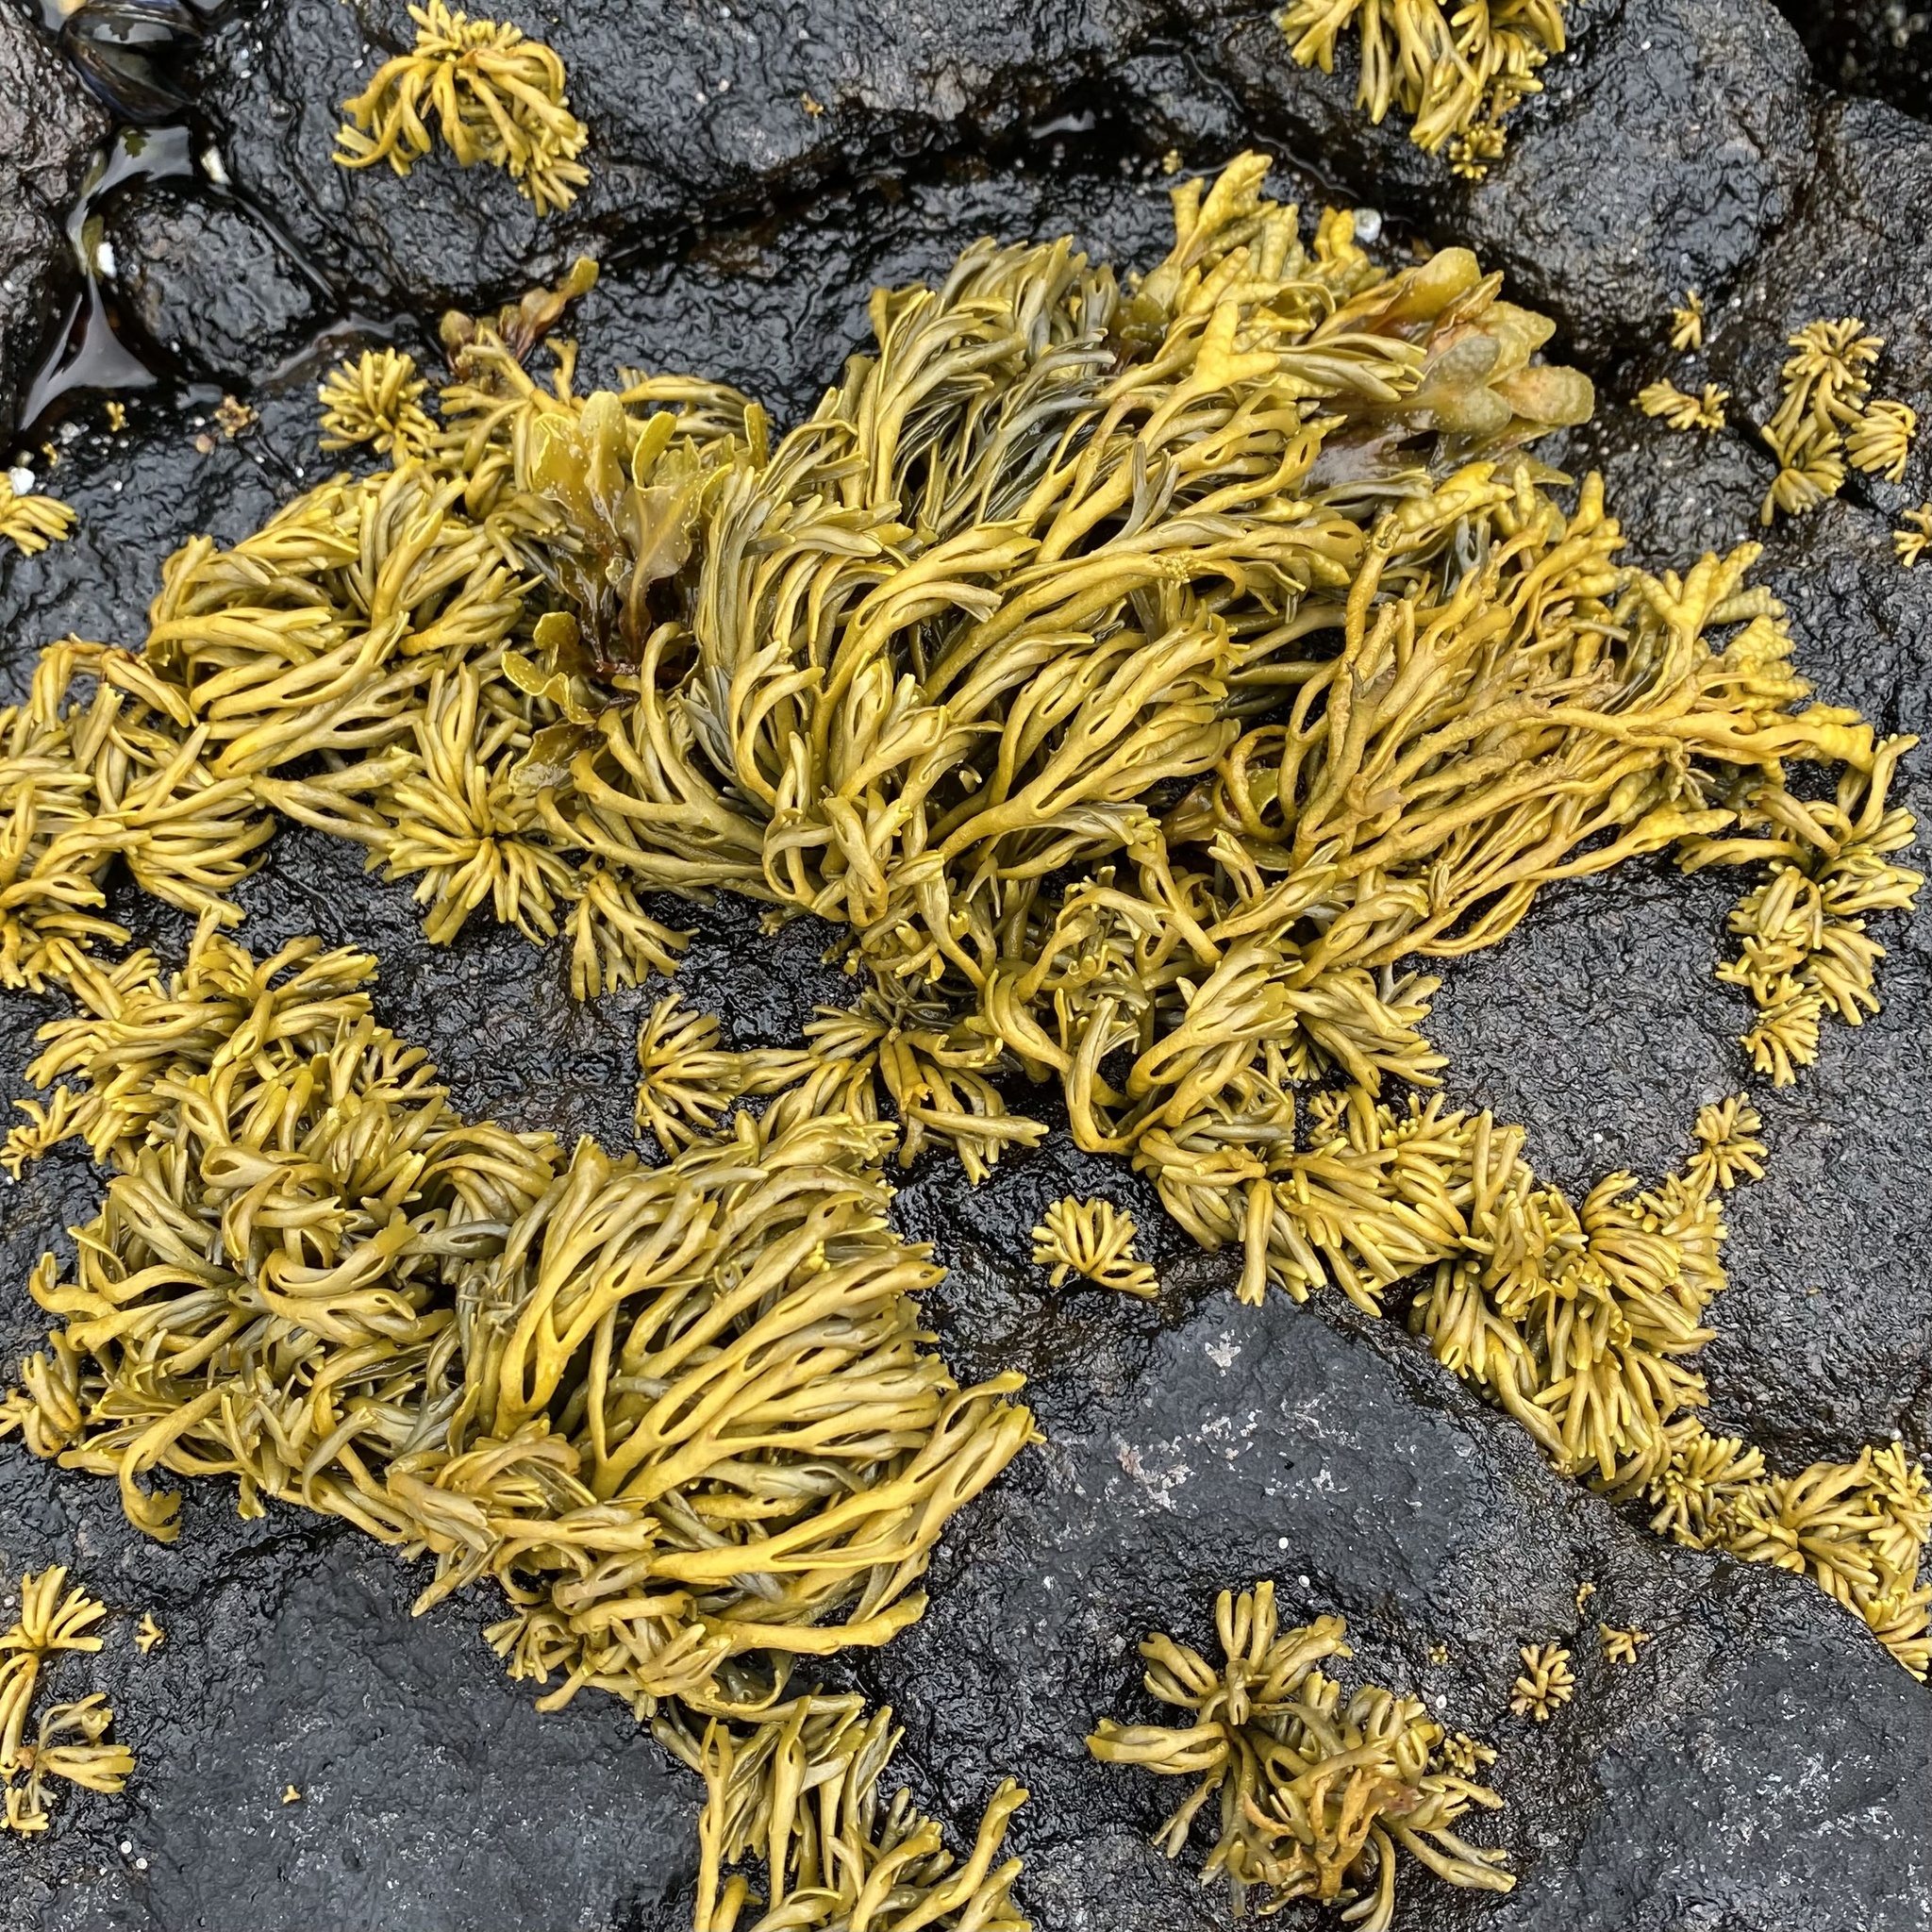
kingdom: Chromista
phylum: Ochrophyta
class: Phaeophyceae
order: Fucales
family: Fucaceae
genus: Pelvetia
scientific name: Pelvetia canaliculata
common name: Channelled wrack
